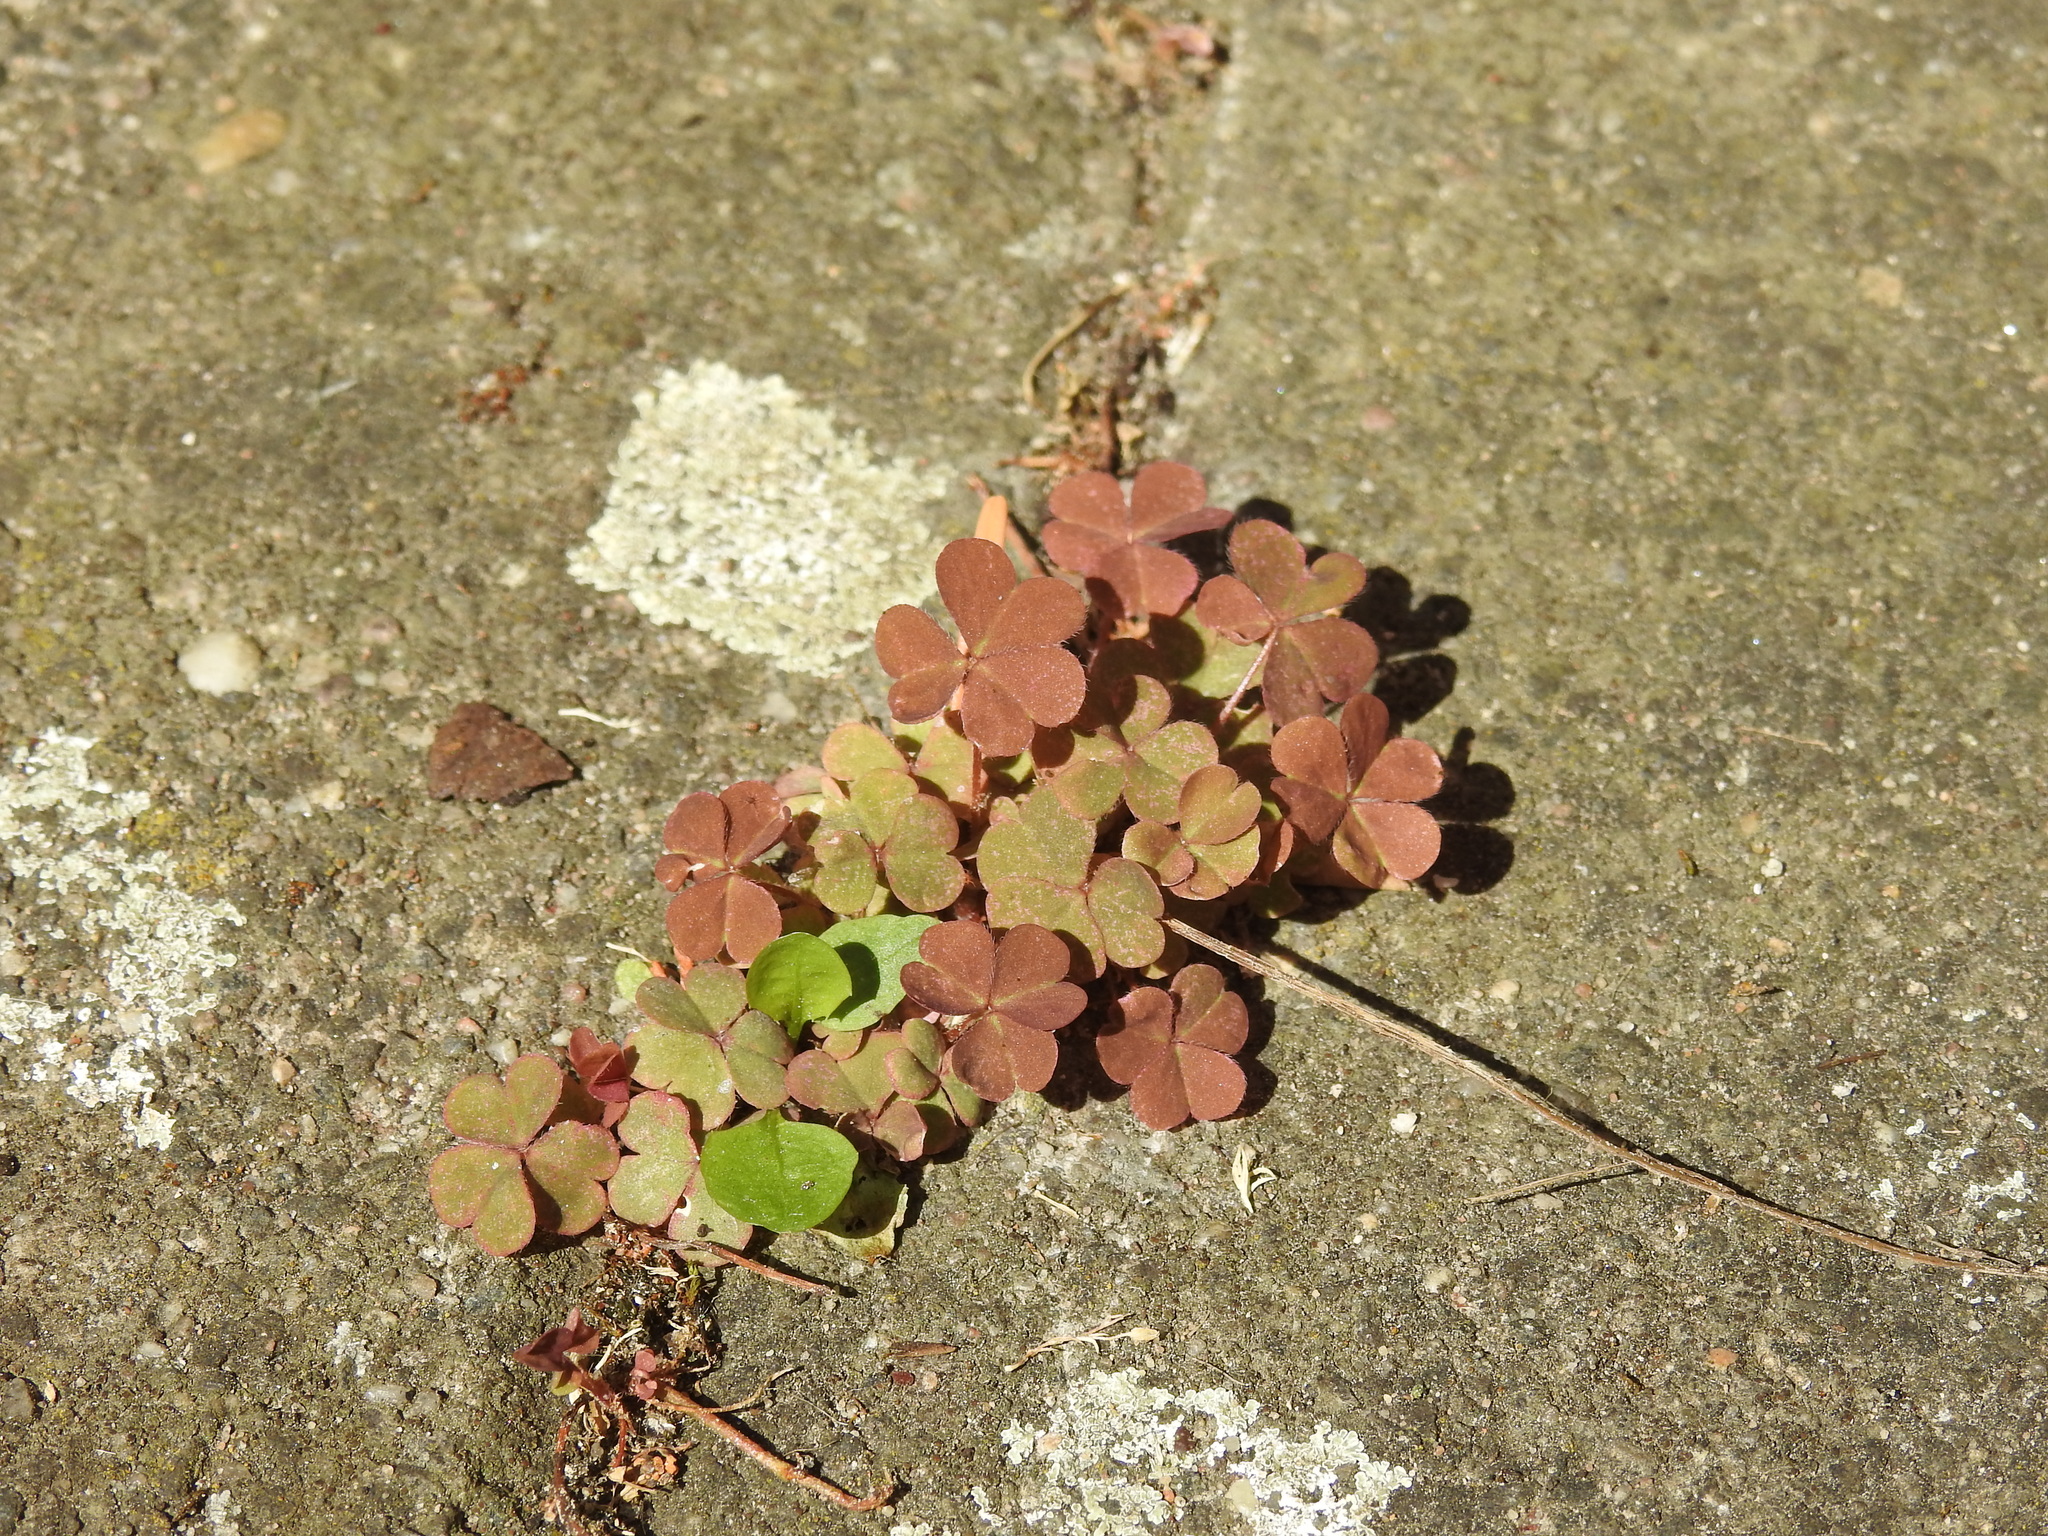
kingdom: Plantae
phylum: Tracheophyta
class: Magnoliopsida
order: Oxalidales
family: Oxalidaceae
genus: Oxalis
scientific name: Oxalis corniculata
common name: Procumbent yellow-sorrel
